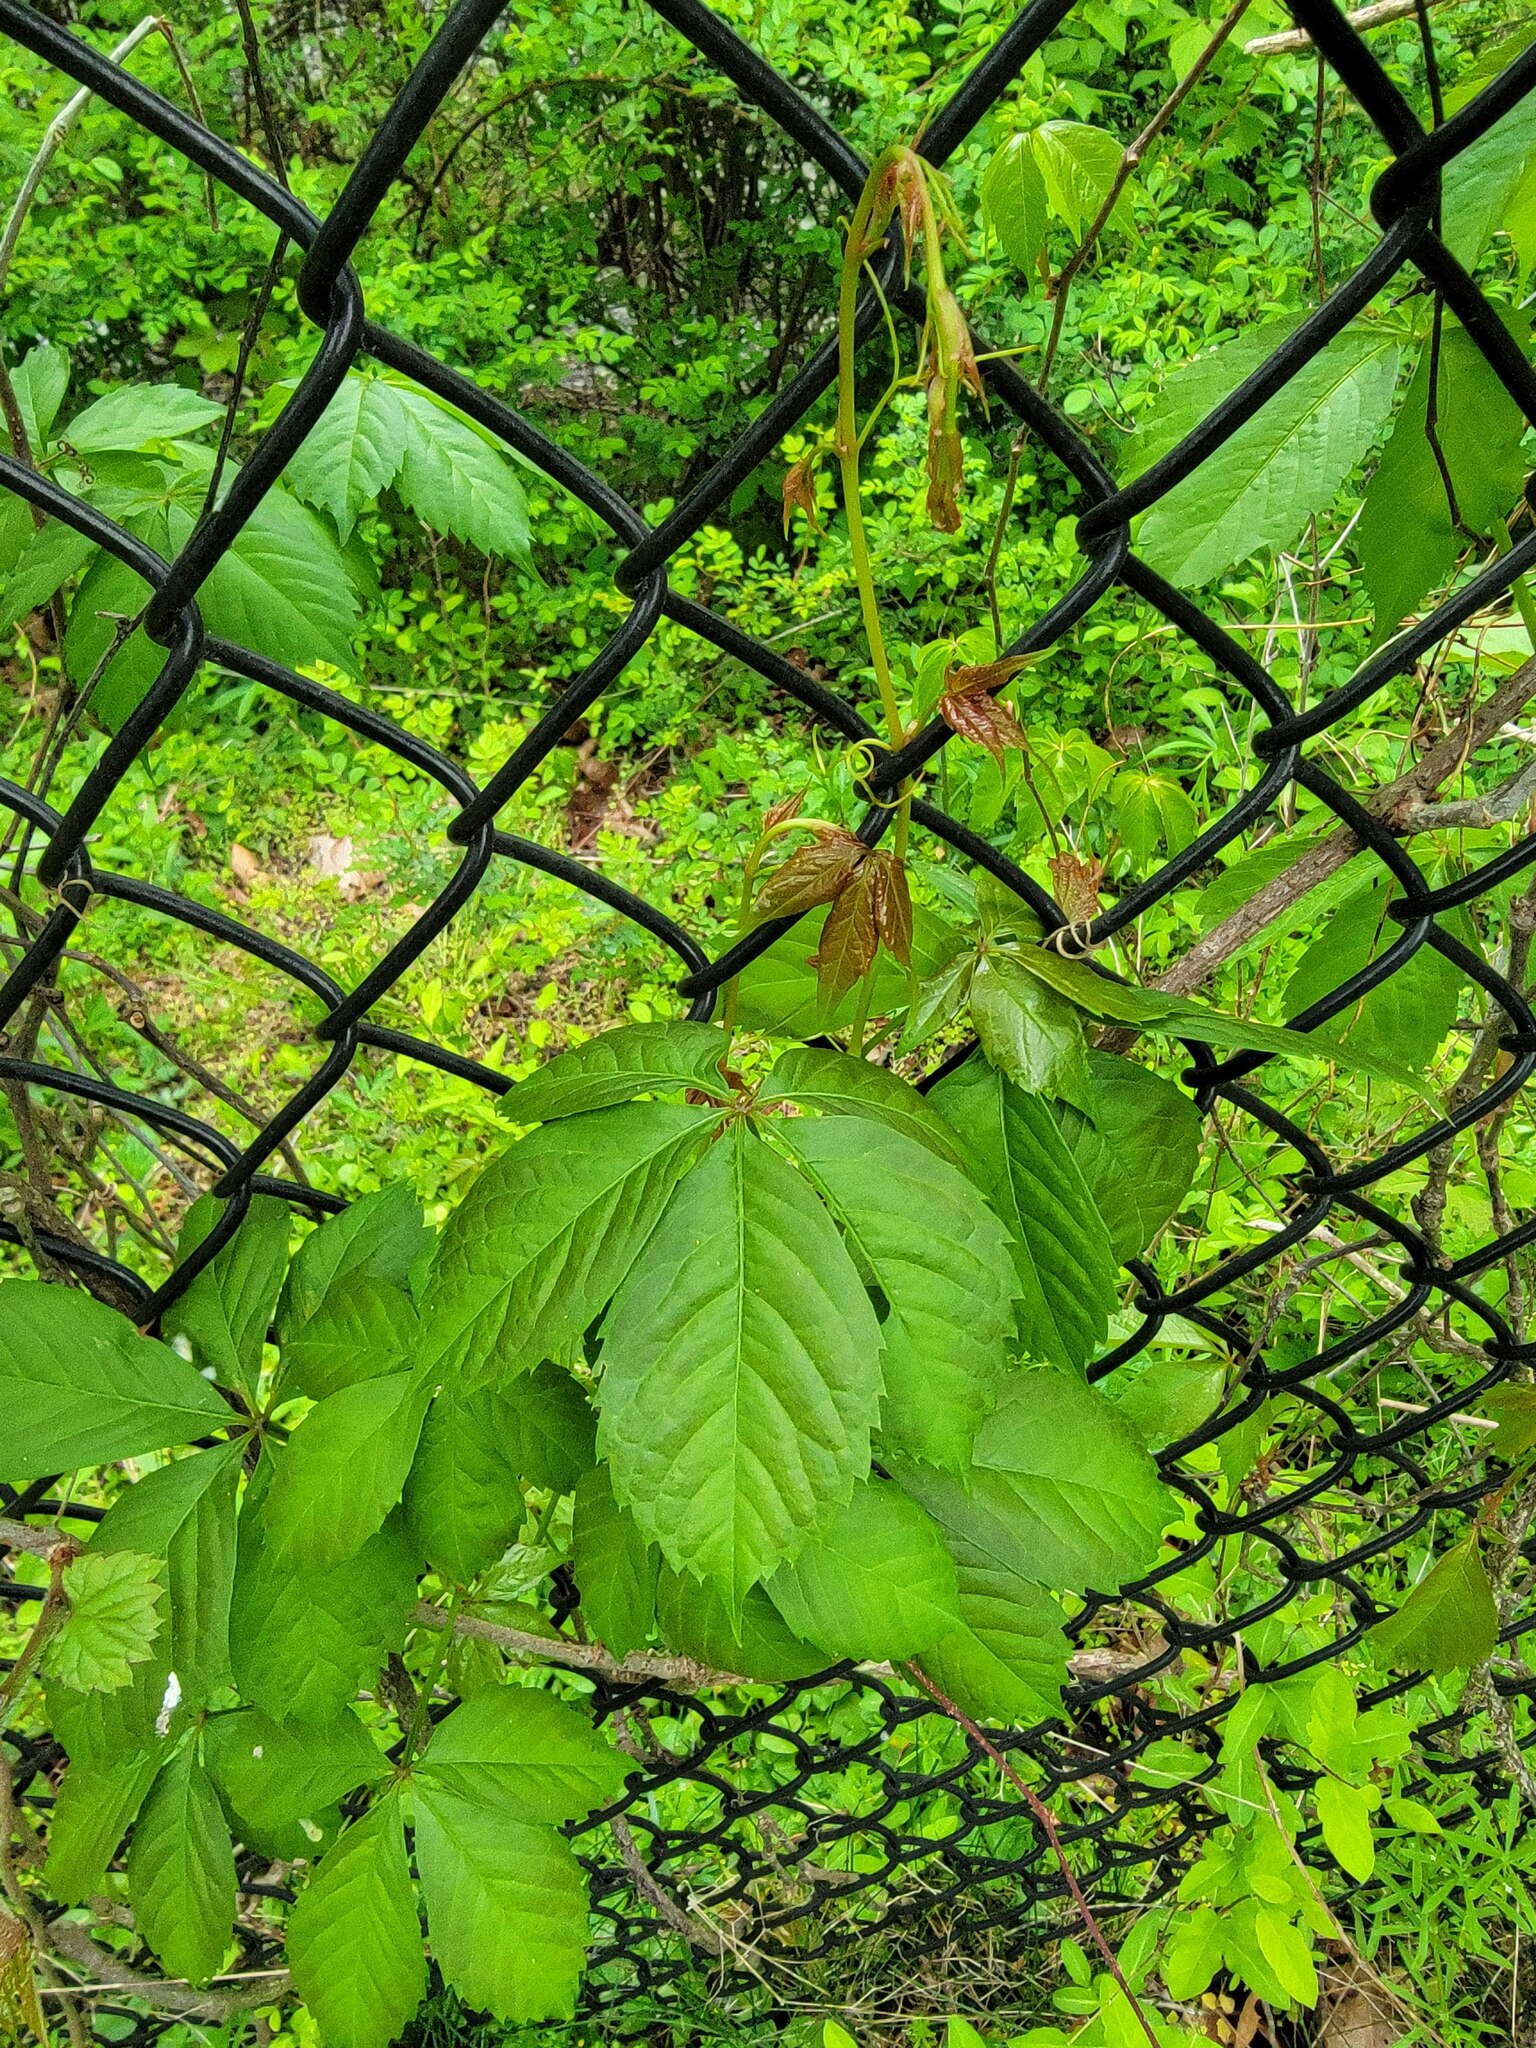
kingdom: Plantae
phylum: Tracheophyta
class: Magnoliopsida
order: Vitales
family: Vitaceae
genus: Parthenocissus
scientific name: Parthenocissus quinquefolia
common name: Virginia-creeper
